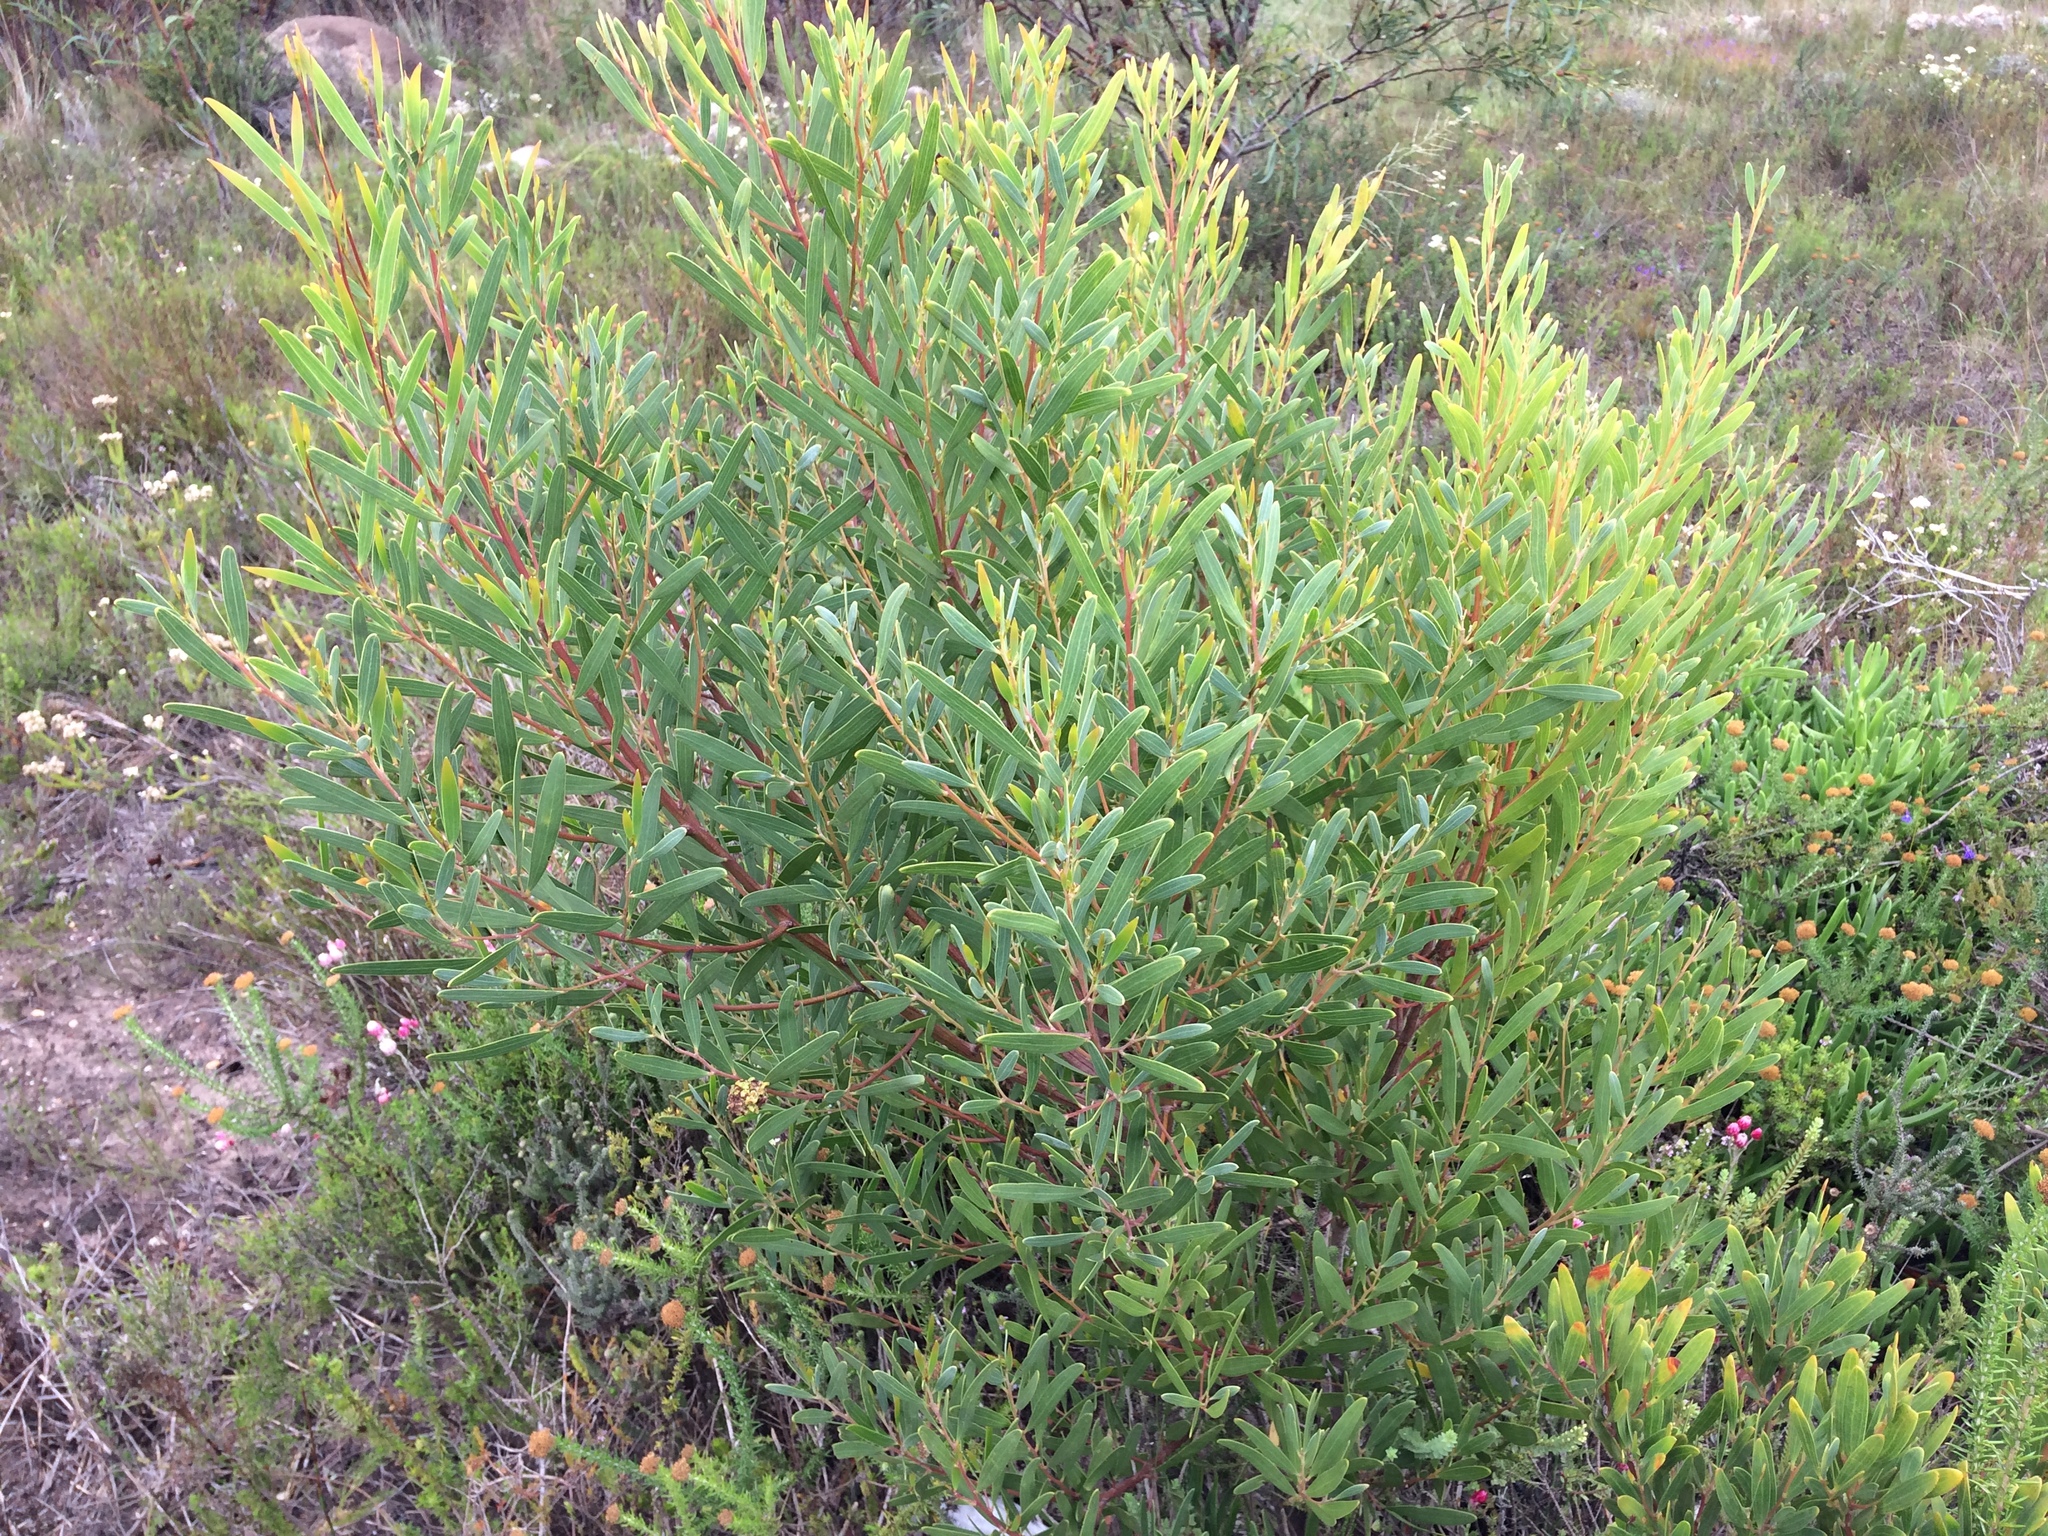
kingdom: Plantae
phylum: Tracheophyta
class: Magnoliopsida
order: Fabales
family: Fabaceae
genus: Acacia
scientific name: Acacia cyclops
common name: Coastal wattle
